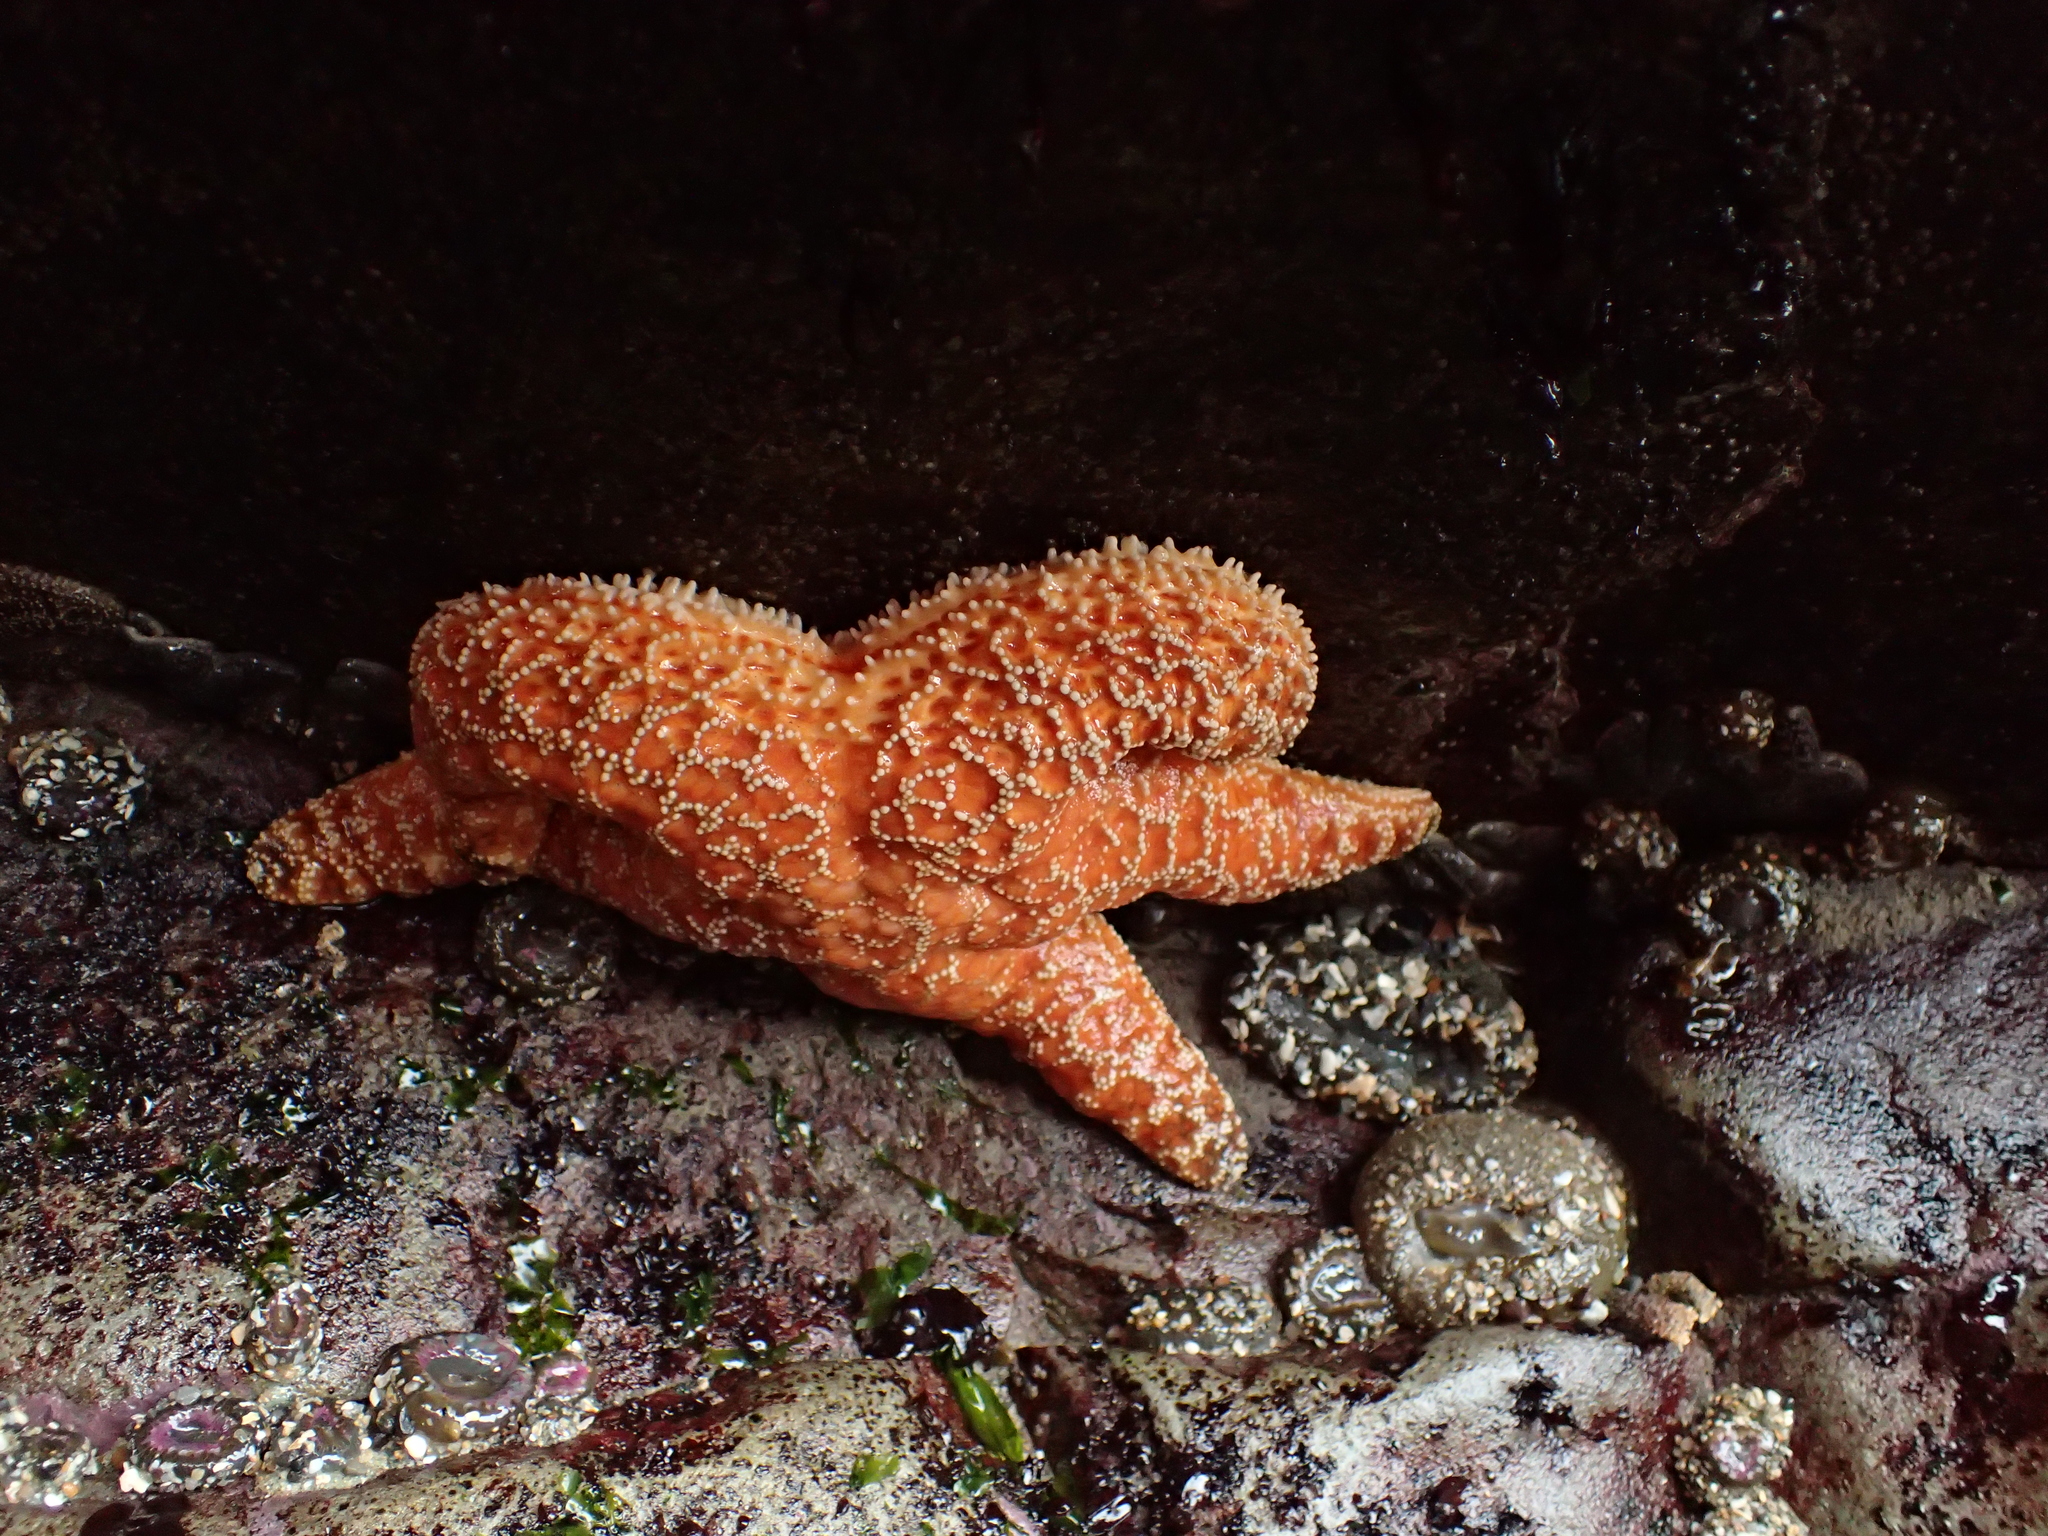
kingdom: Animalia
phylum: Echinodermata
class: Asteroidea
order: Forcipulatida
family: Asteriidae
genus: Pisaster
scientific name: Pisaster ochraceus
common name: Ochre stars
